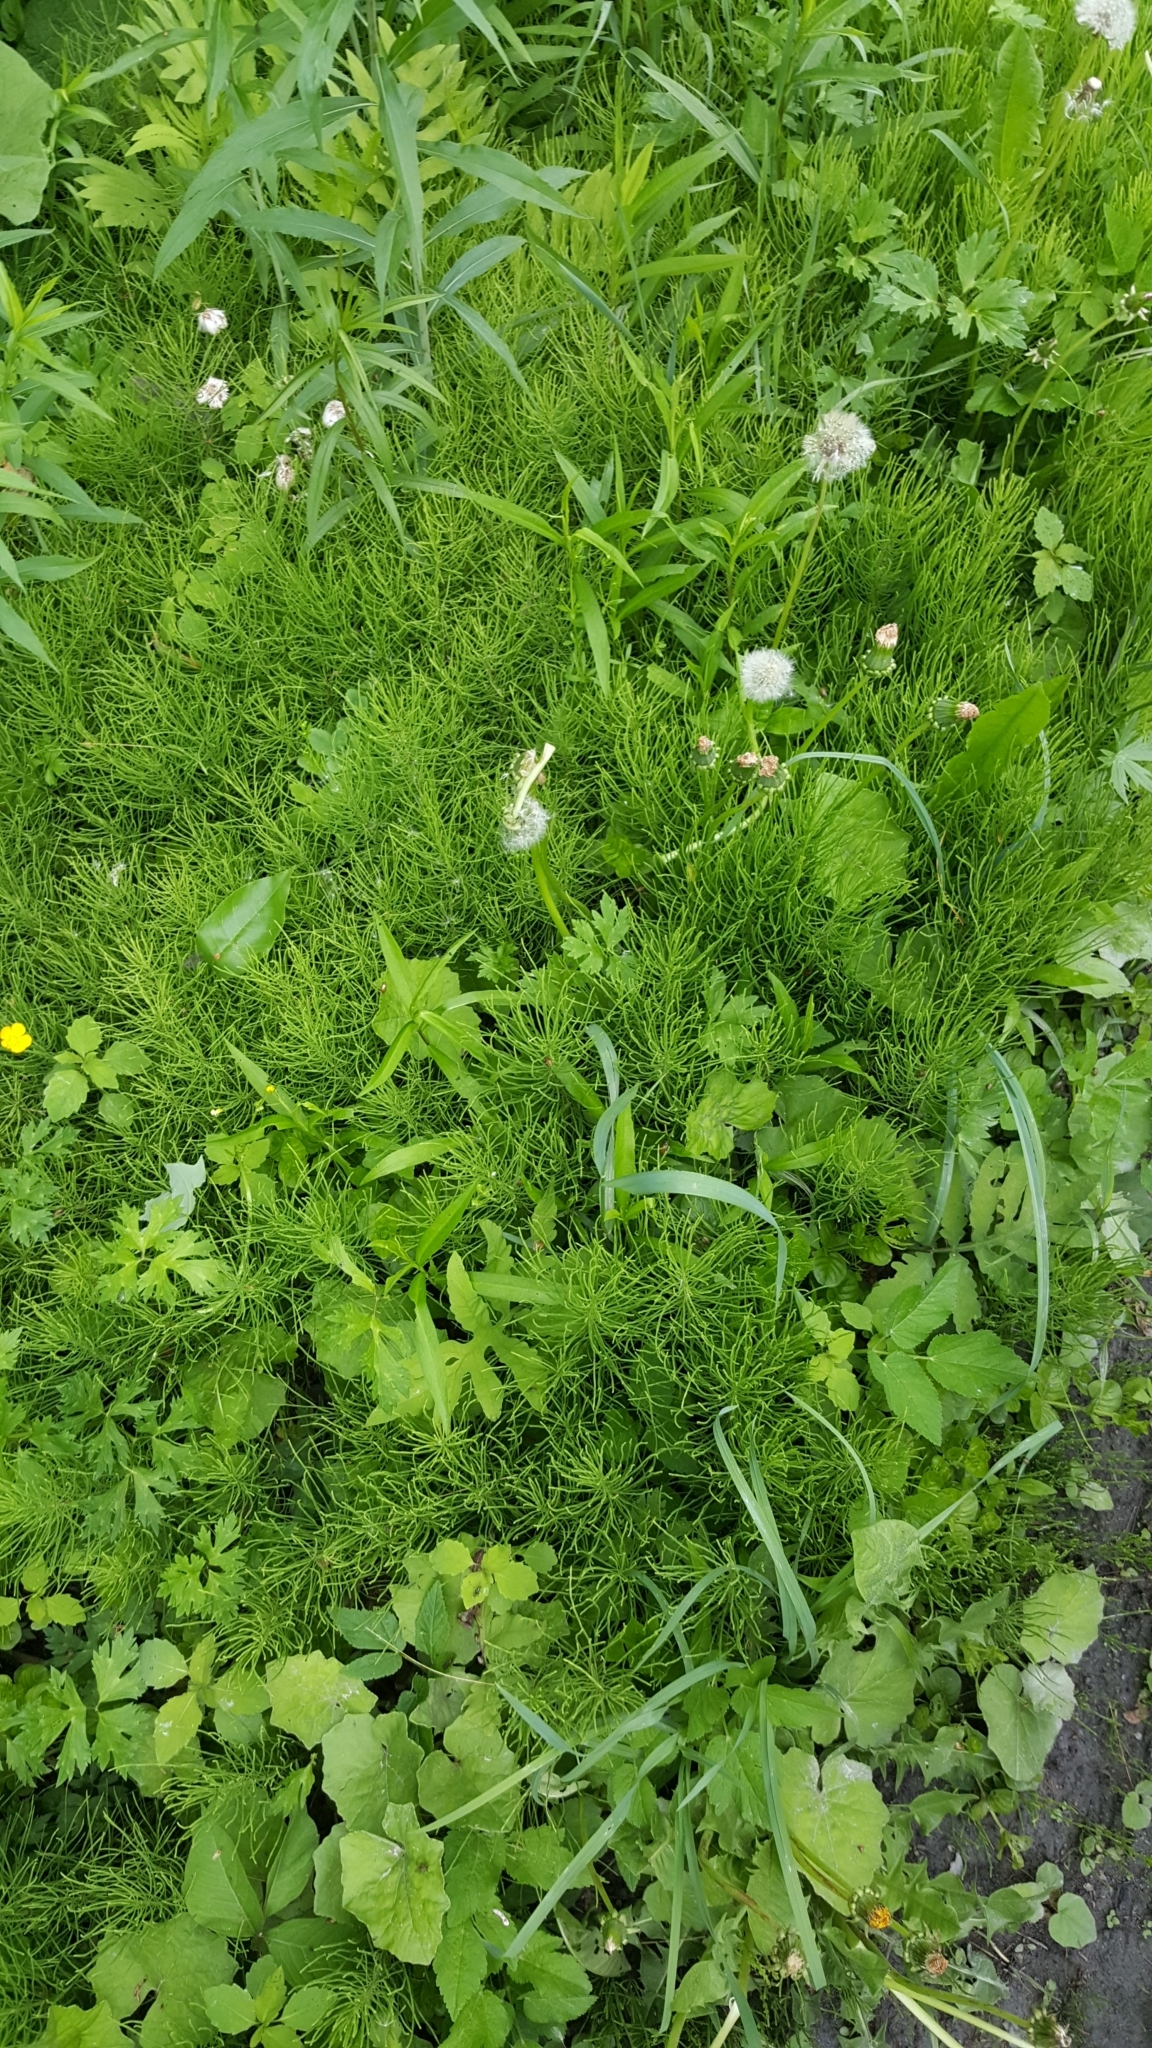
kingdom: Plantae
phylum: Tracheophyta
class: Polypodiopsida
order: Equisetales
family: Equisetaceae
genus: Equisetum
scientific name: Equisetum arvense
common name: Field horsetail
